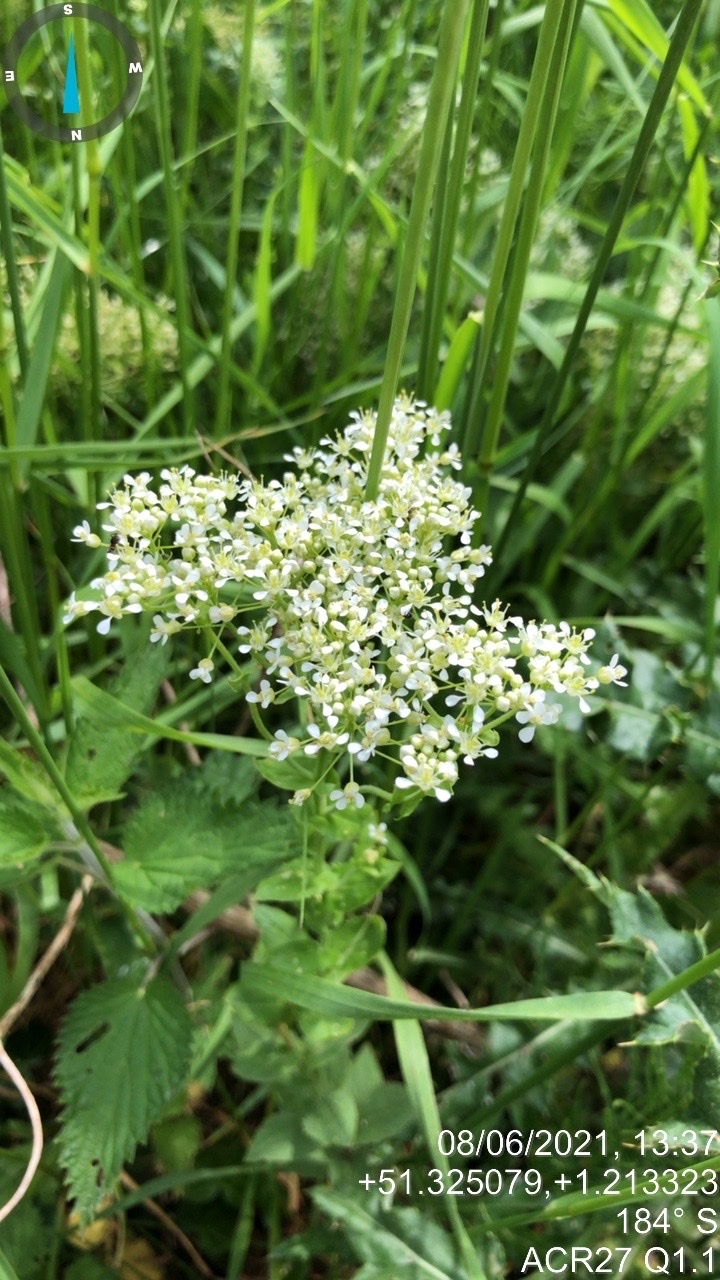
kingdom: Plantae
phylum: Tracheophyta
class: Magnoliopsida
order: Brassicales
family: Brassicaceae
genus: Lepidium
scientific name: Lepidium draba
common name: Hoary cress
